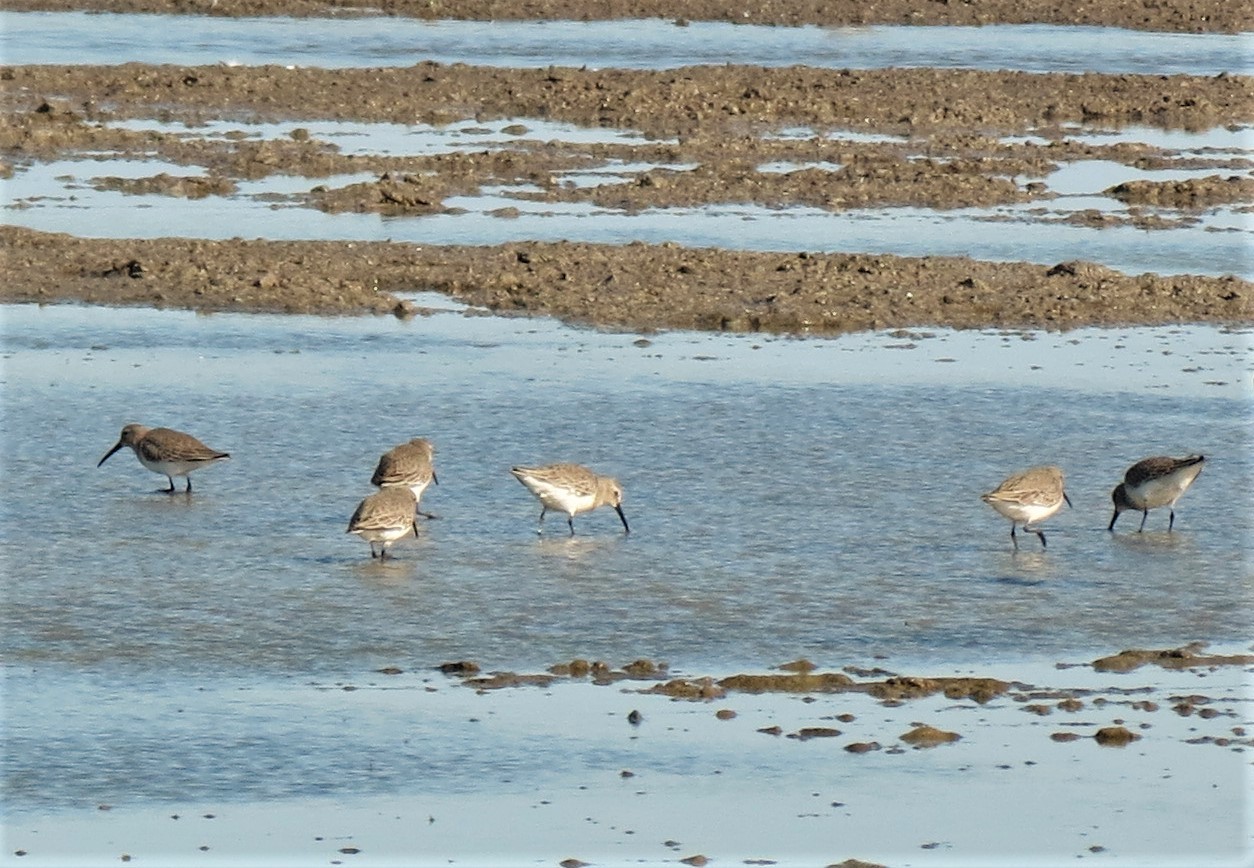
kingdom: Animalia
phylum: Chordata
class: Aves
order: Charadriiformes
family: Scolopacidae
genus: Calidris
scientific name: Calidris alpina
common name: Dunlin
